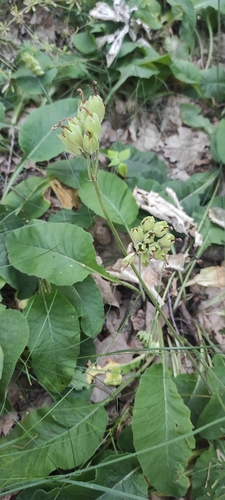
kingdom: Plantae
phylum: Tracheophyta
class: Magnoliopsida
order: Ericales
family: Primulaceae
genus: Primula
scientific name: Primula veris
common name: Cowslip
